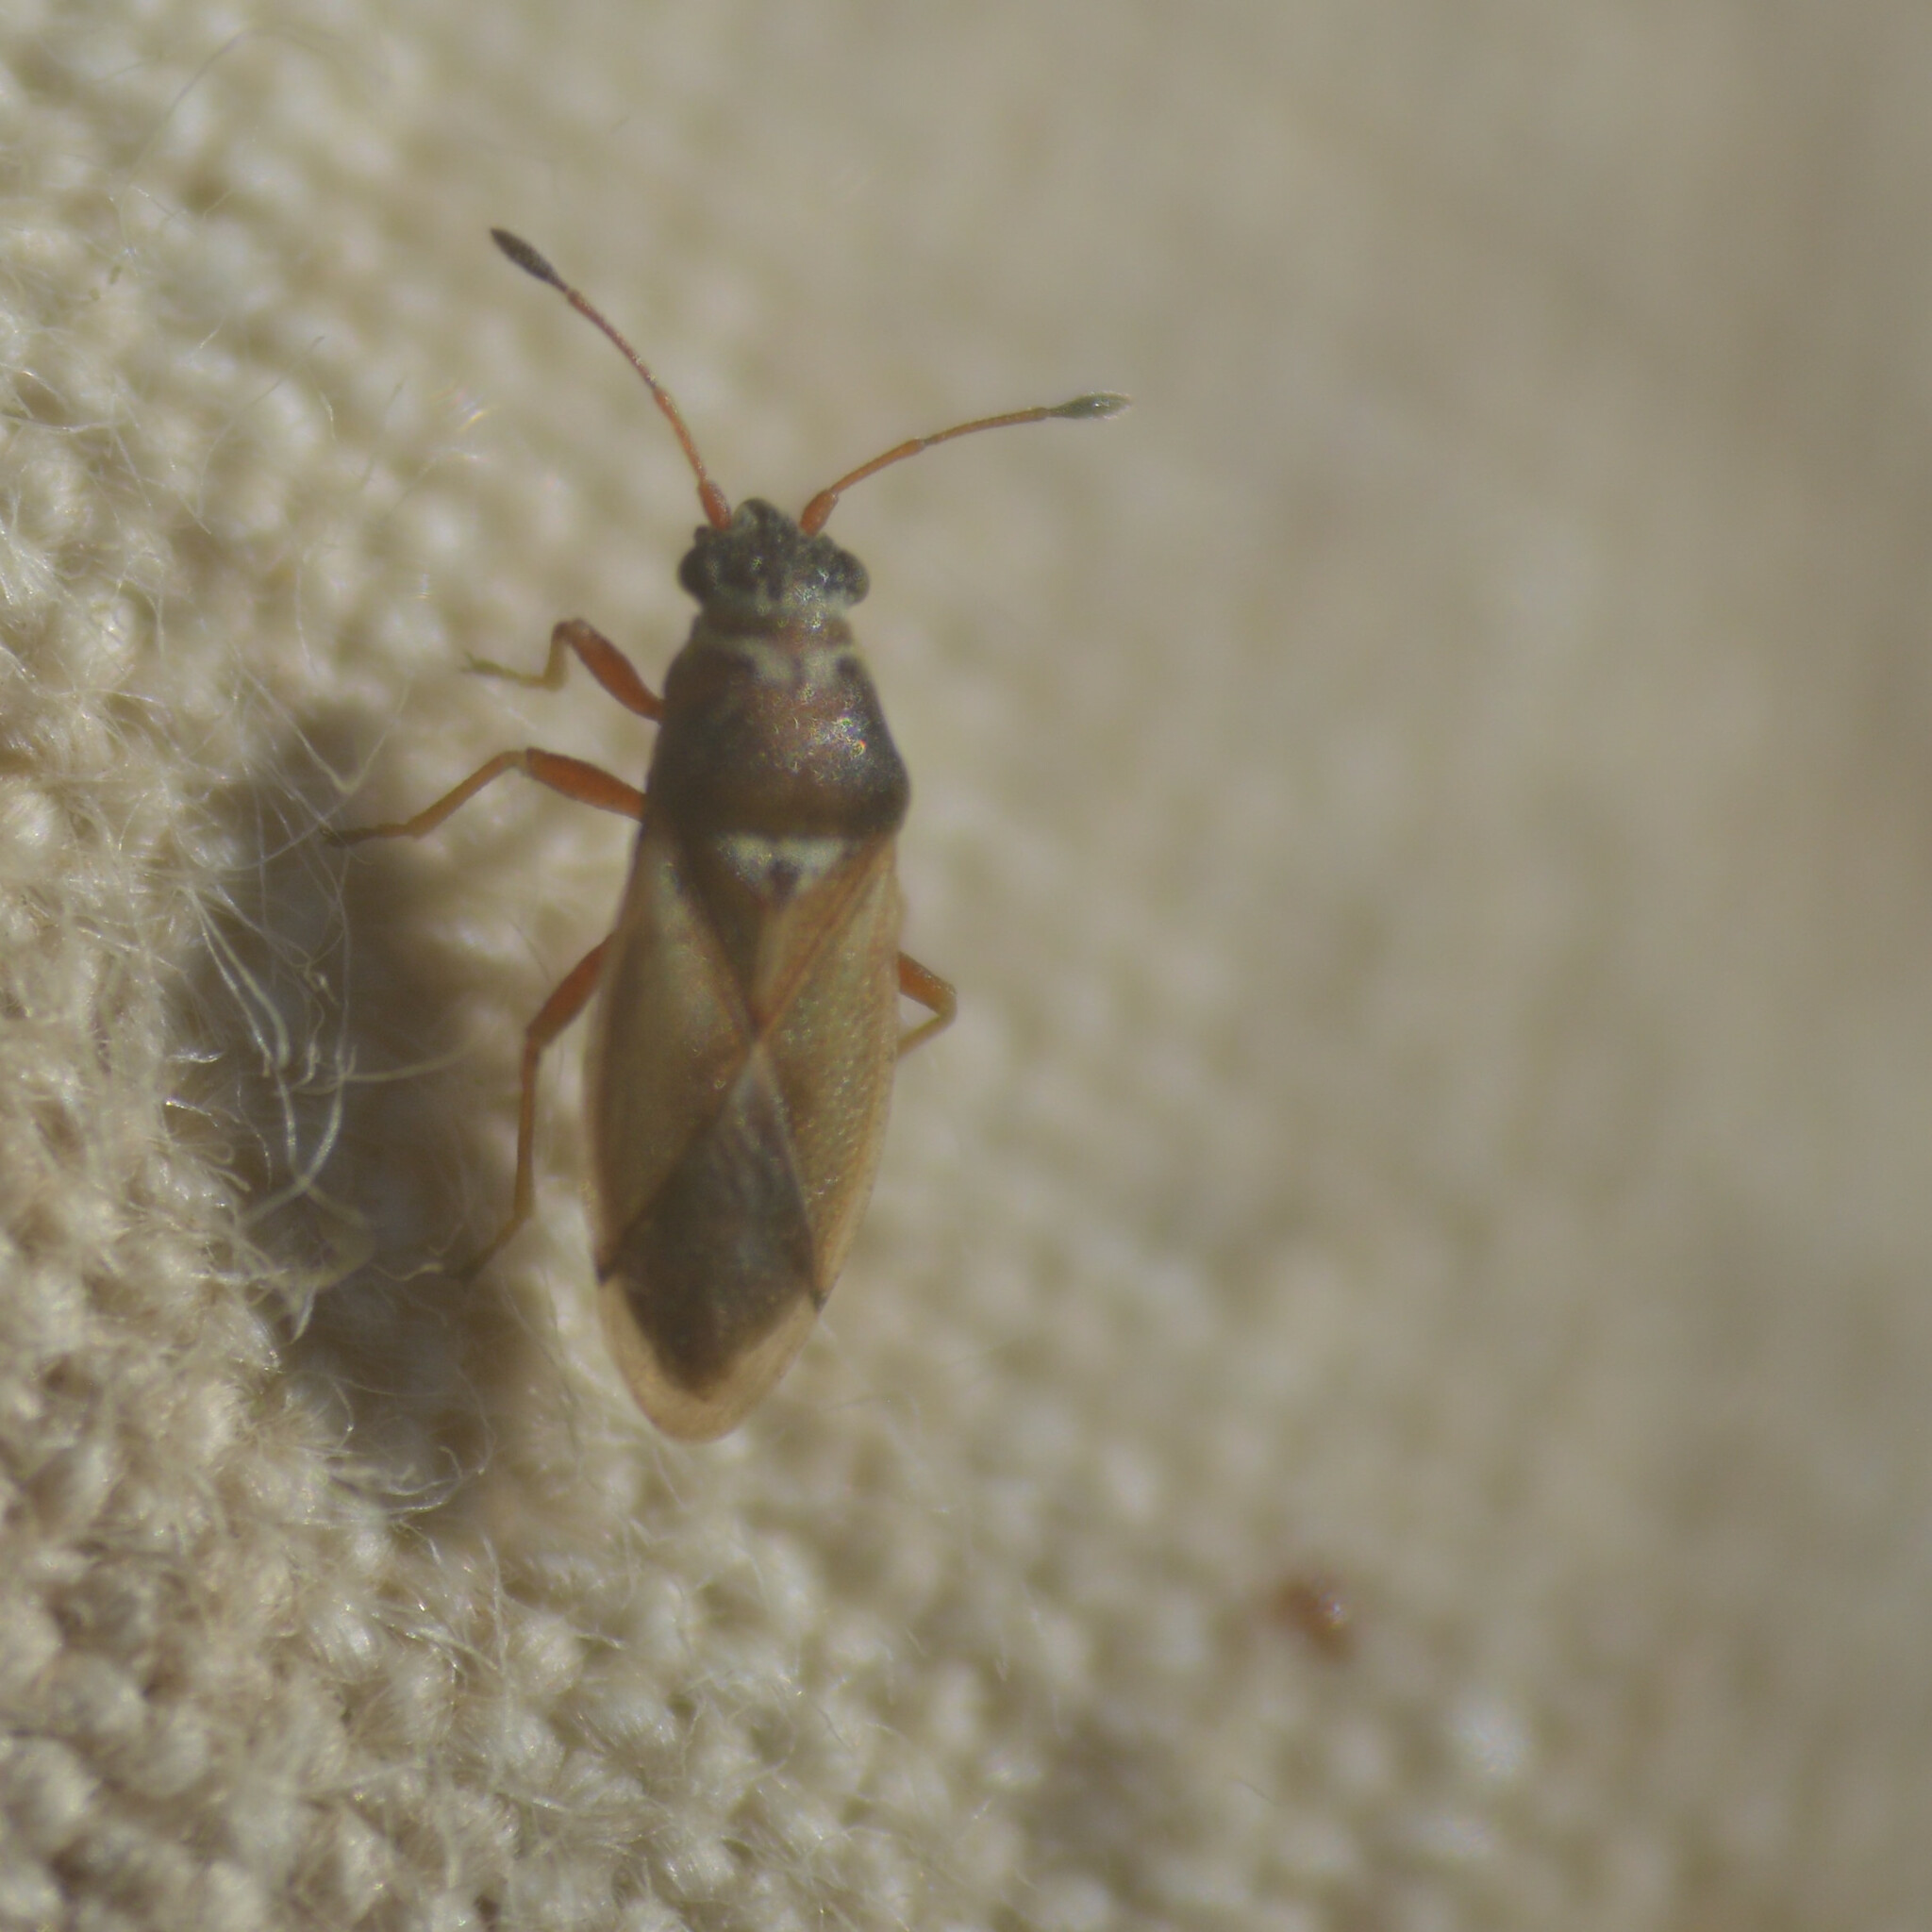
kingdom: Animalia
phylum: Arthropoda
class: Insecta
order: Hemiptera
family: Cymidae
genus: Cymus
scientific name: Cymus melanocephalus
